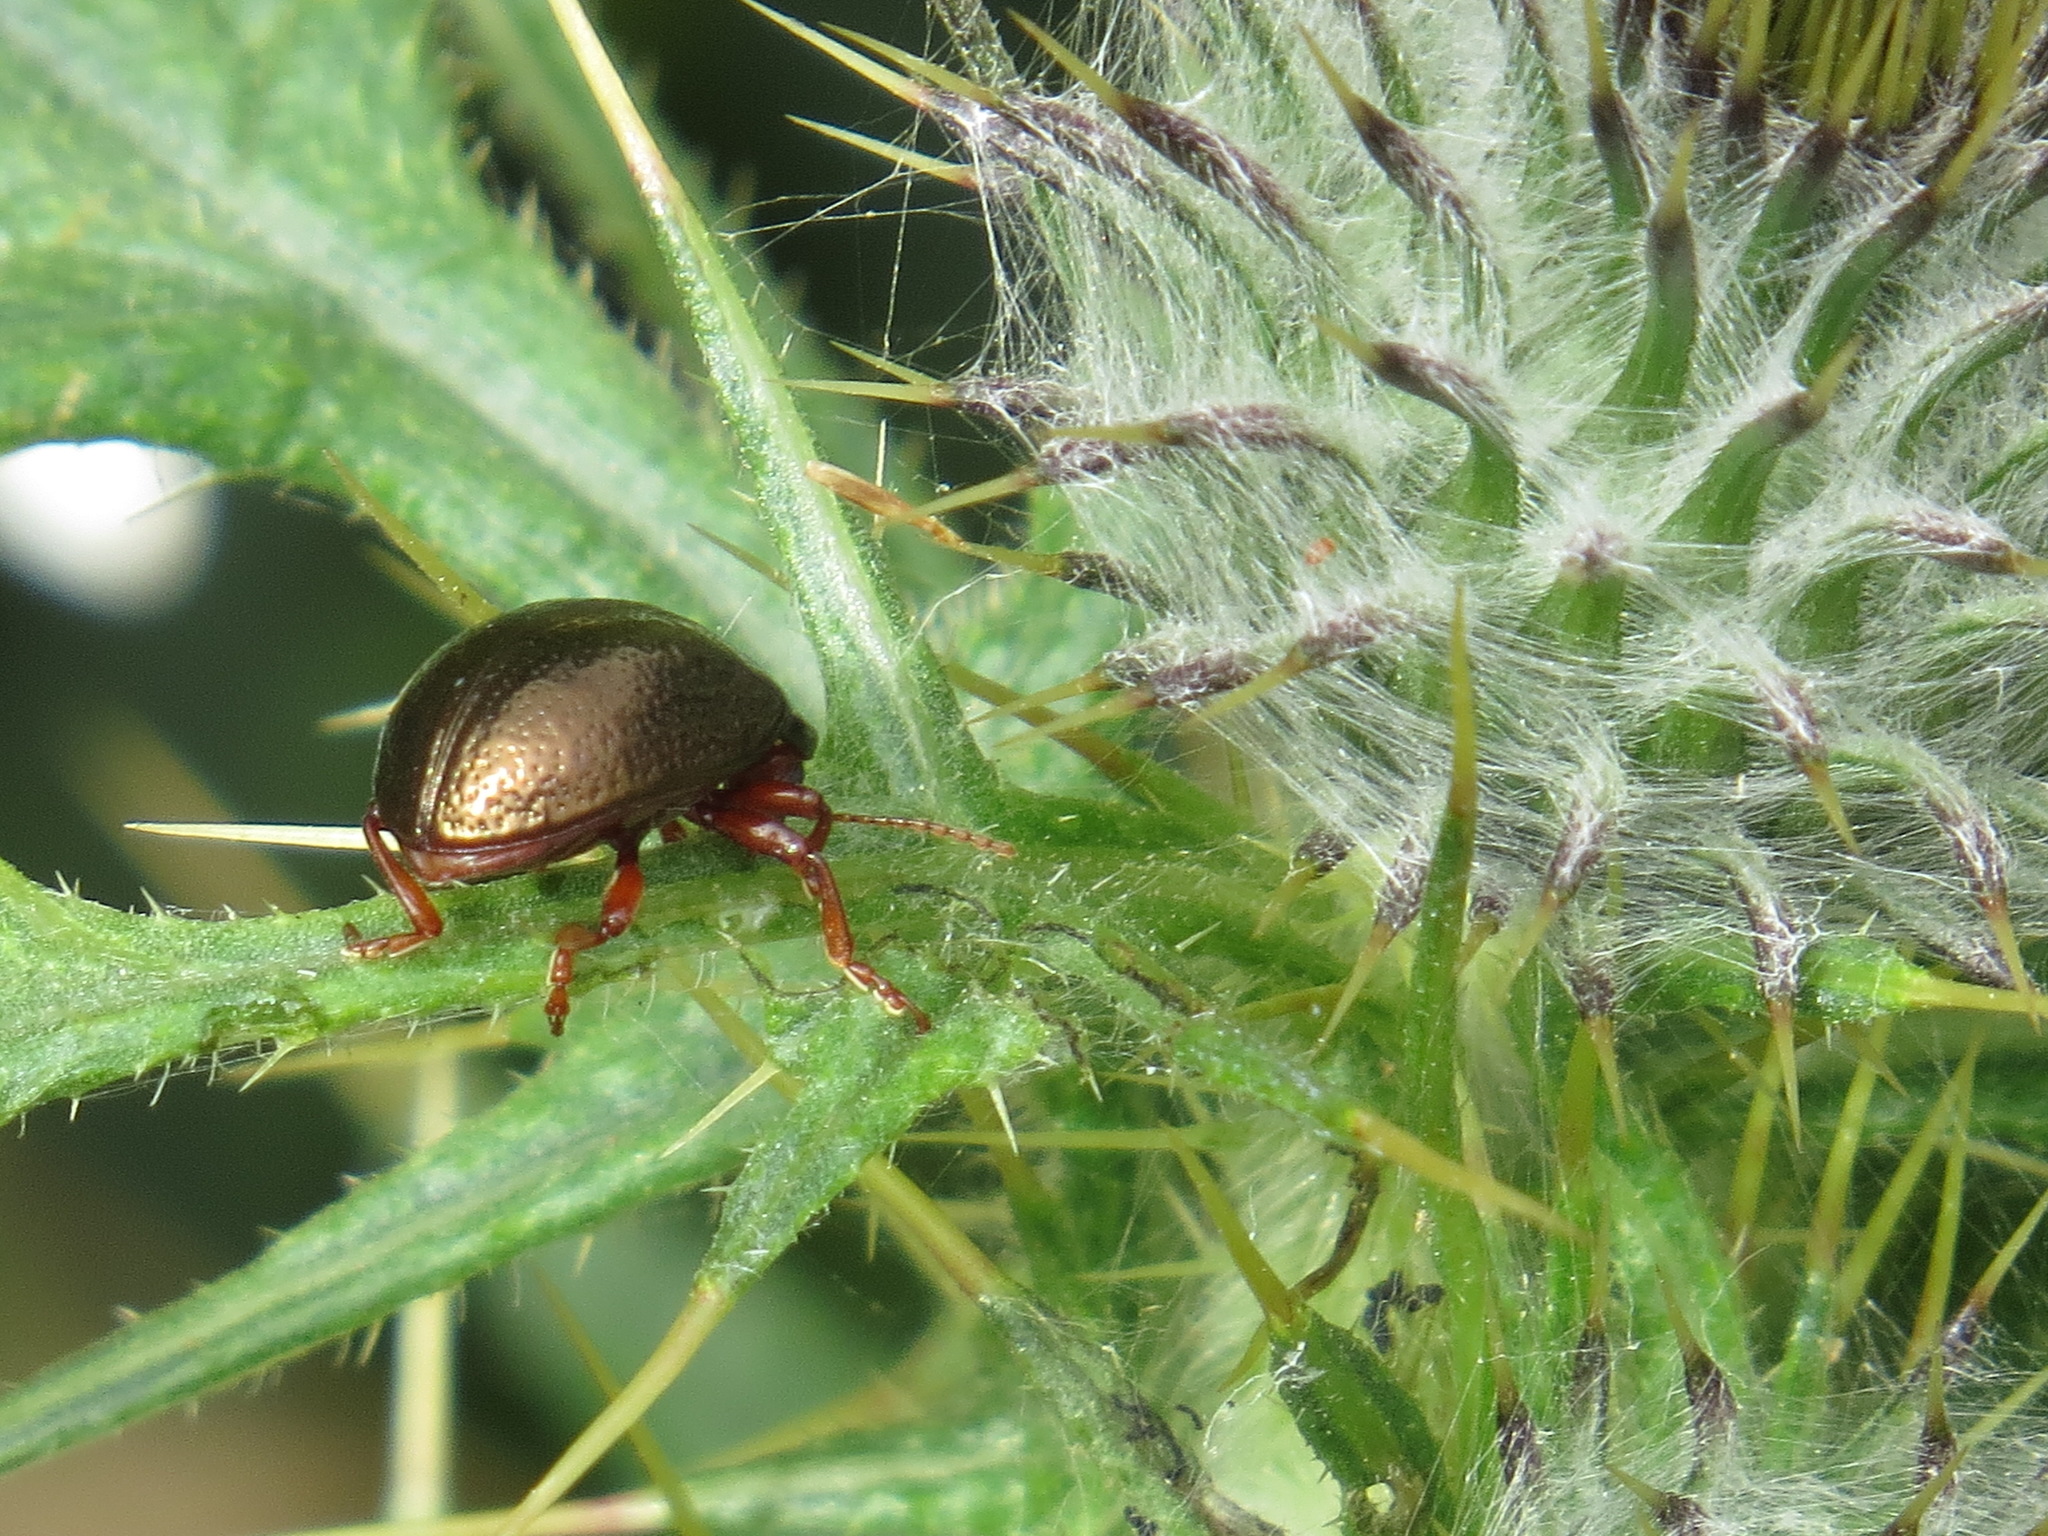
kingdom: Animalia
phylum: Arthropoda
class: Insecta
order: Coleoptera
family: Chrysomelidae
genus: Chrysolina
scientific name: Chrysolina bankii
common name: Leaf beetle
